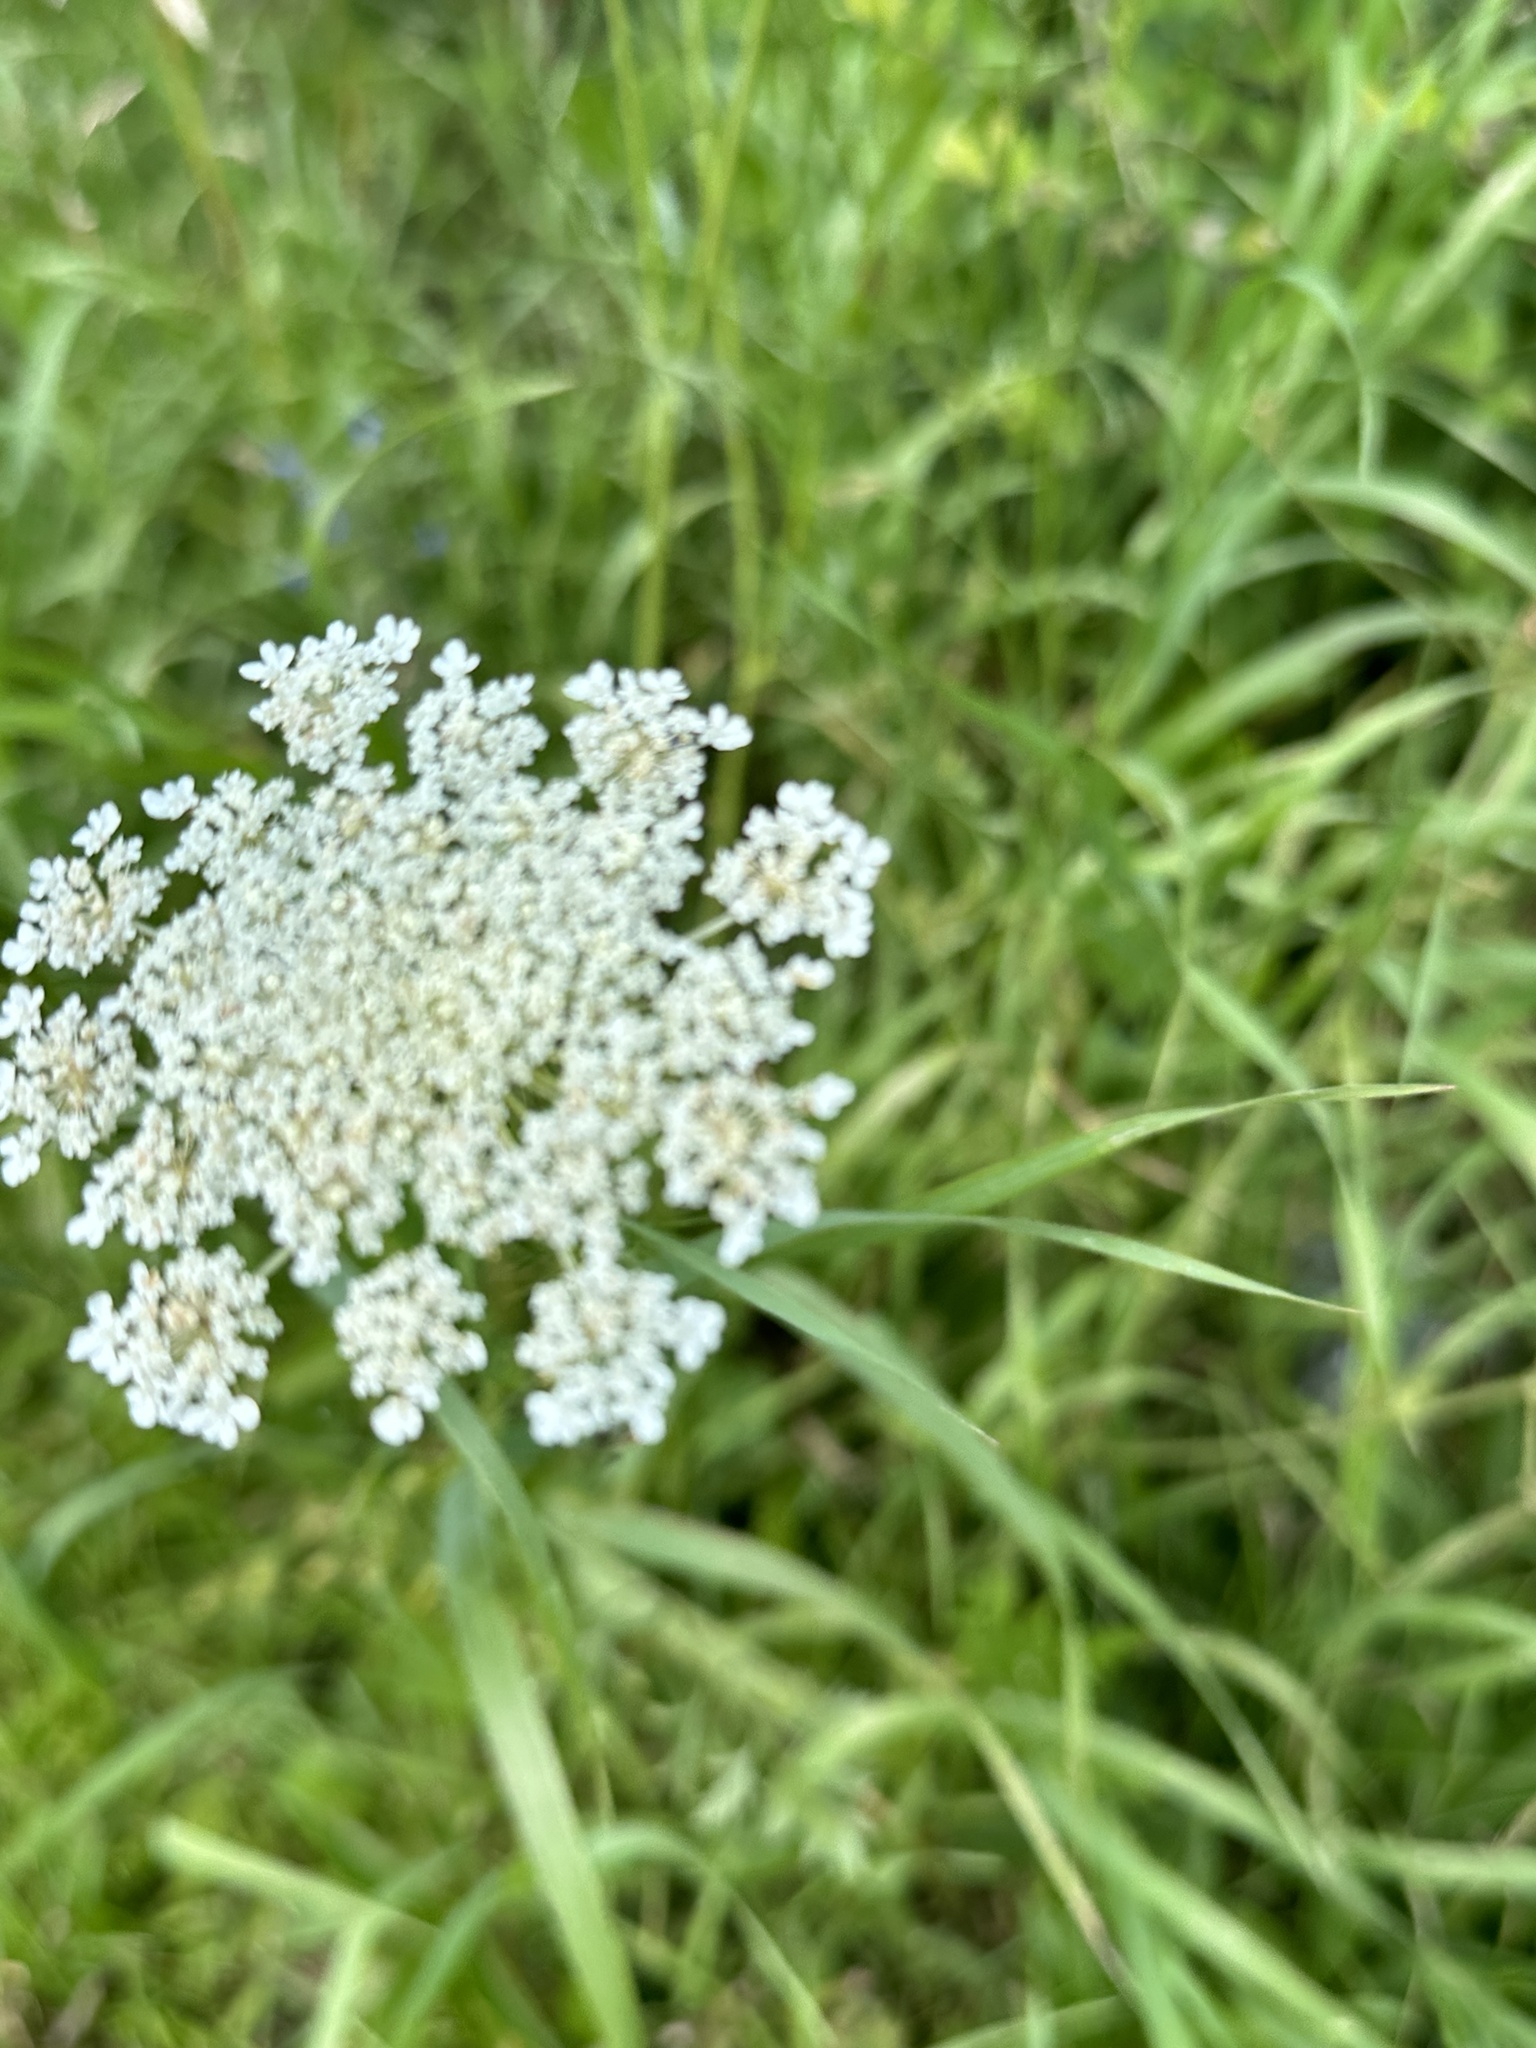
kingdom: Plantae
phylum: Tracheophyta
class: Magnoliopsida
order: Apiales
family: Apiaceae
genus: Daucus
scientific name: Daucus carota
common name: Wild carrot
